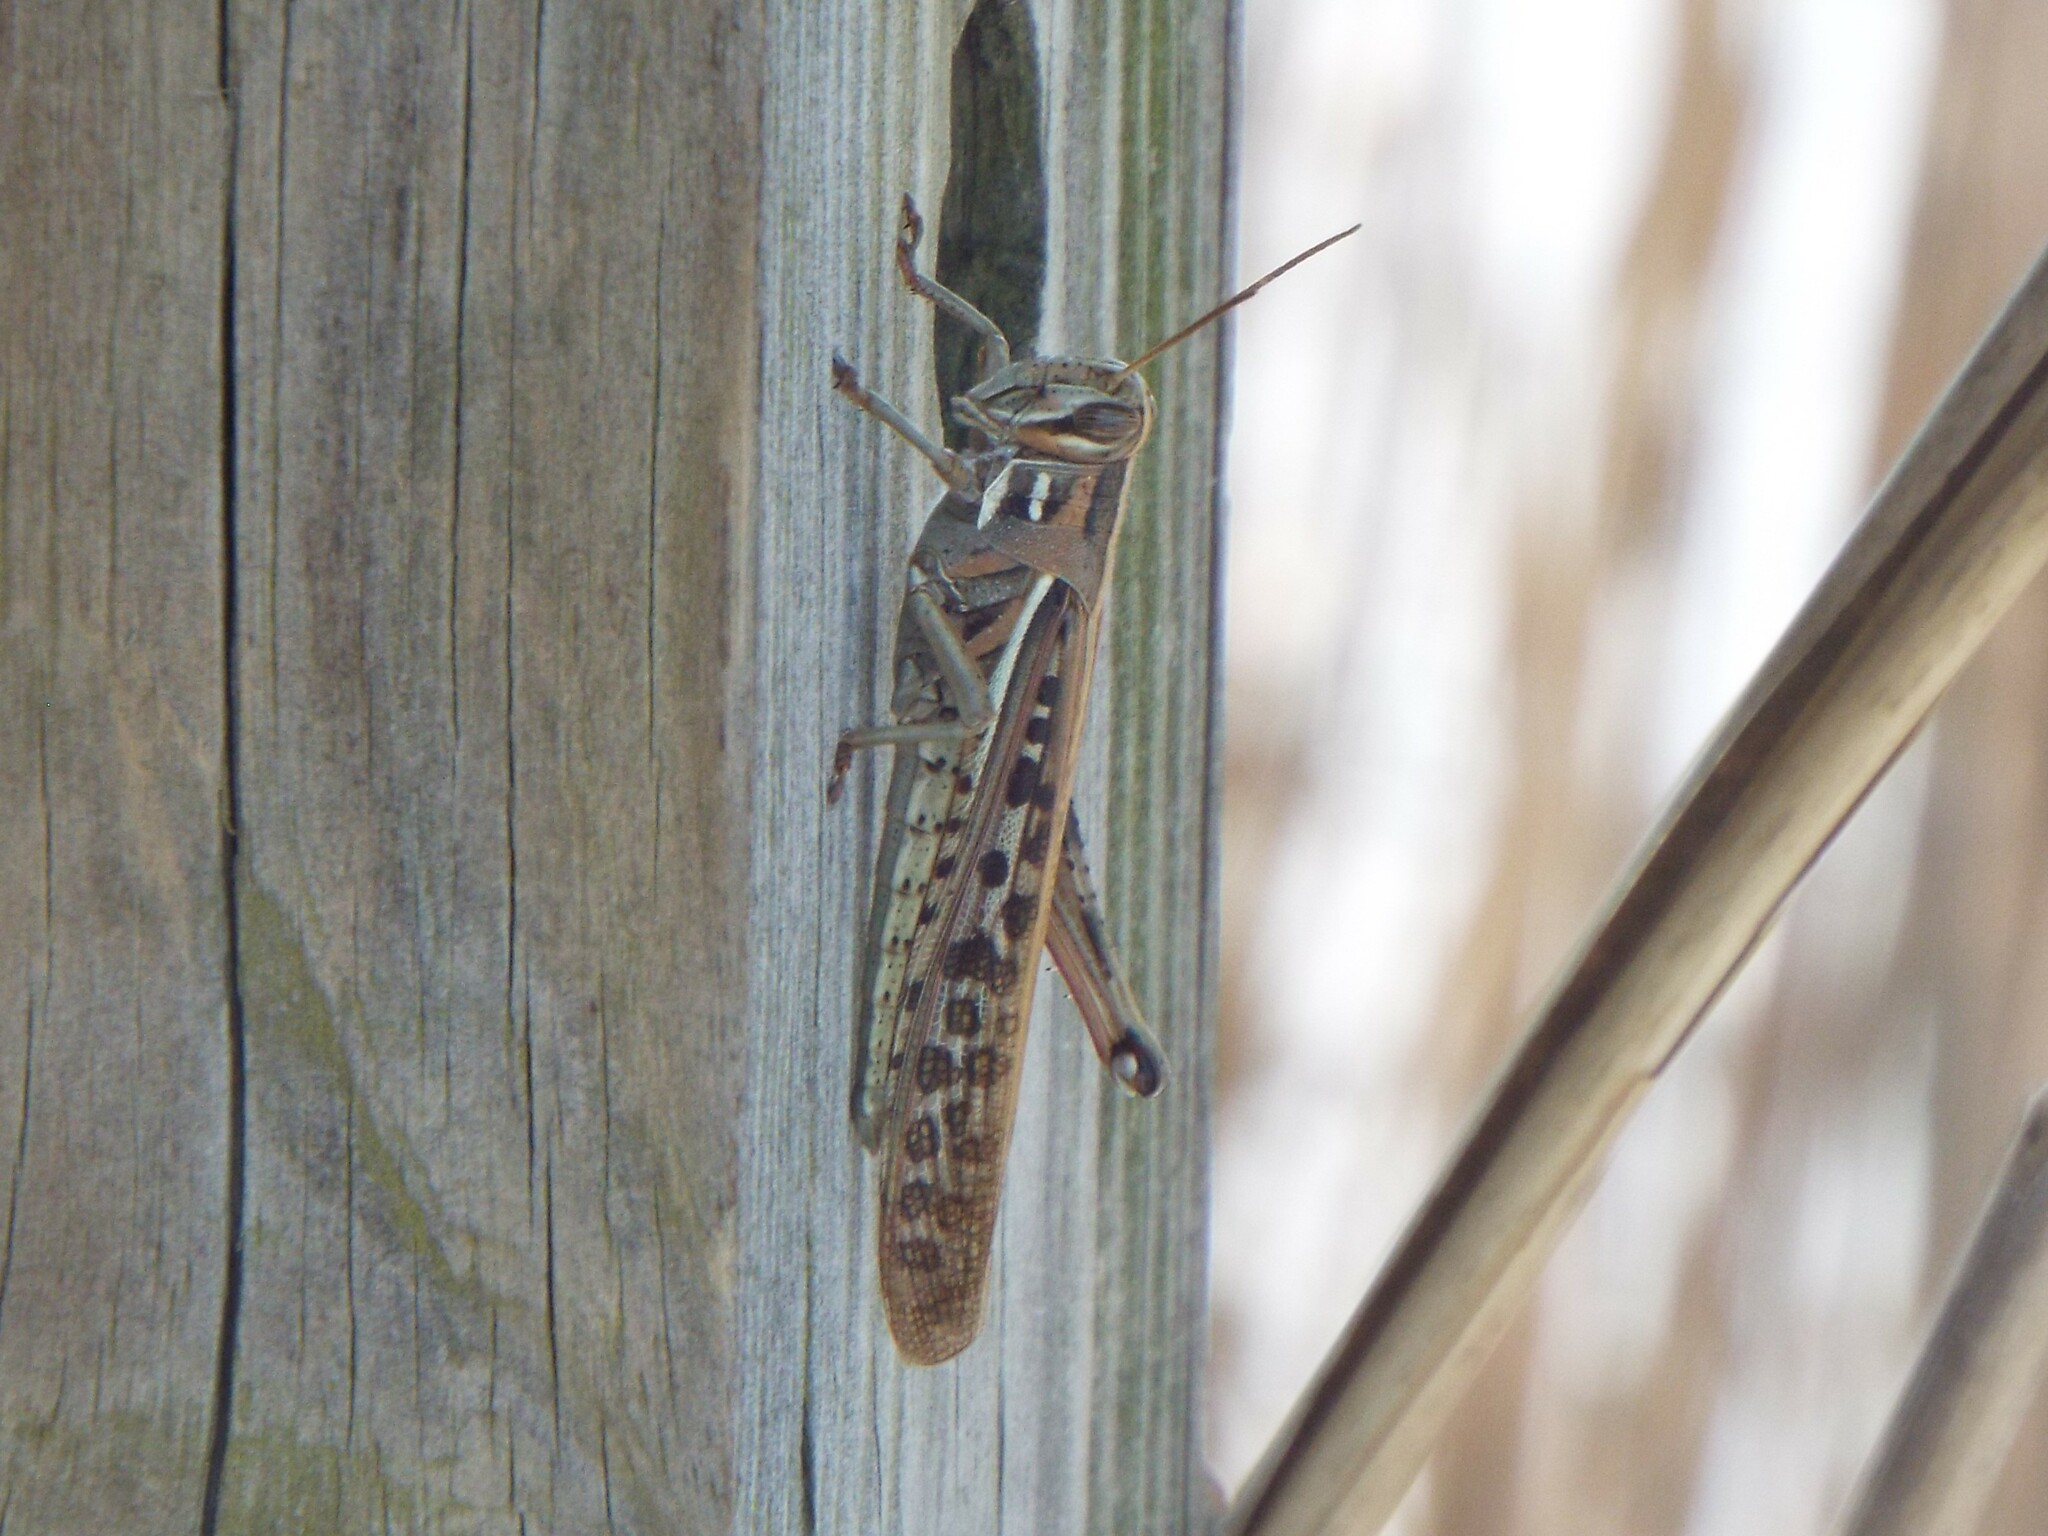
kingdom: Animalia
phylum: Arthropoda
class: Insecta
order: Orthoptera
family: Acrididae
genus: Schistocerca
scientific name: Schistocerca americana
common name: American bird locust
